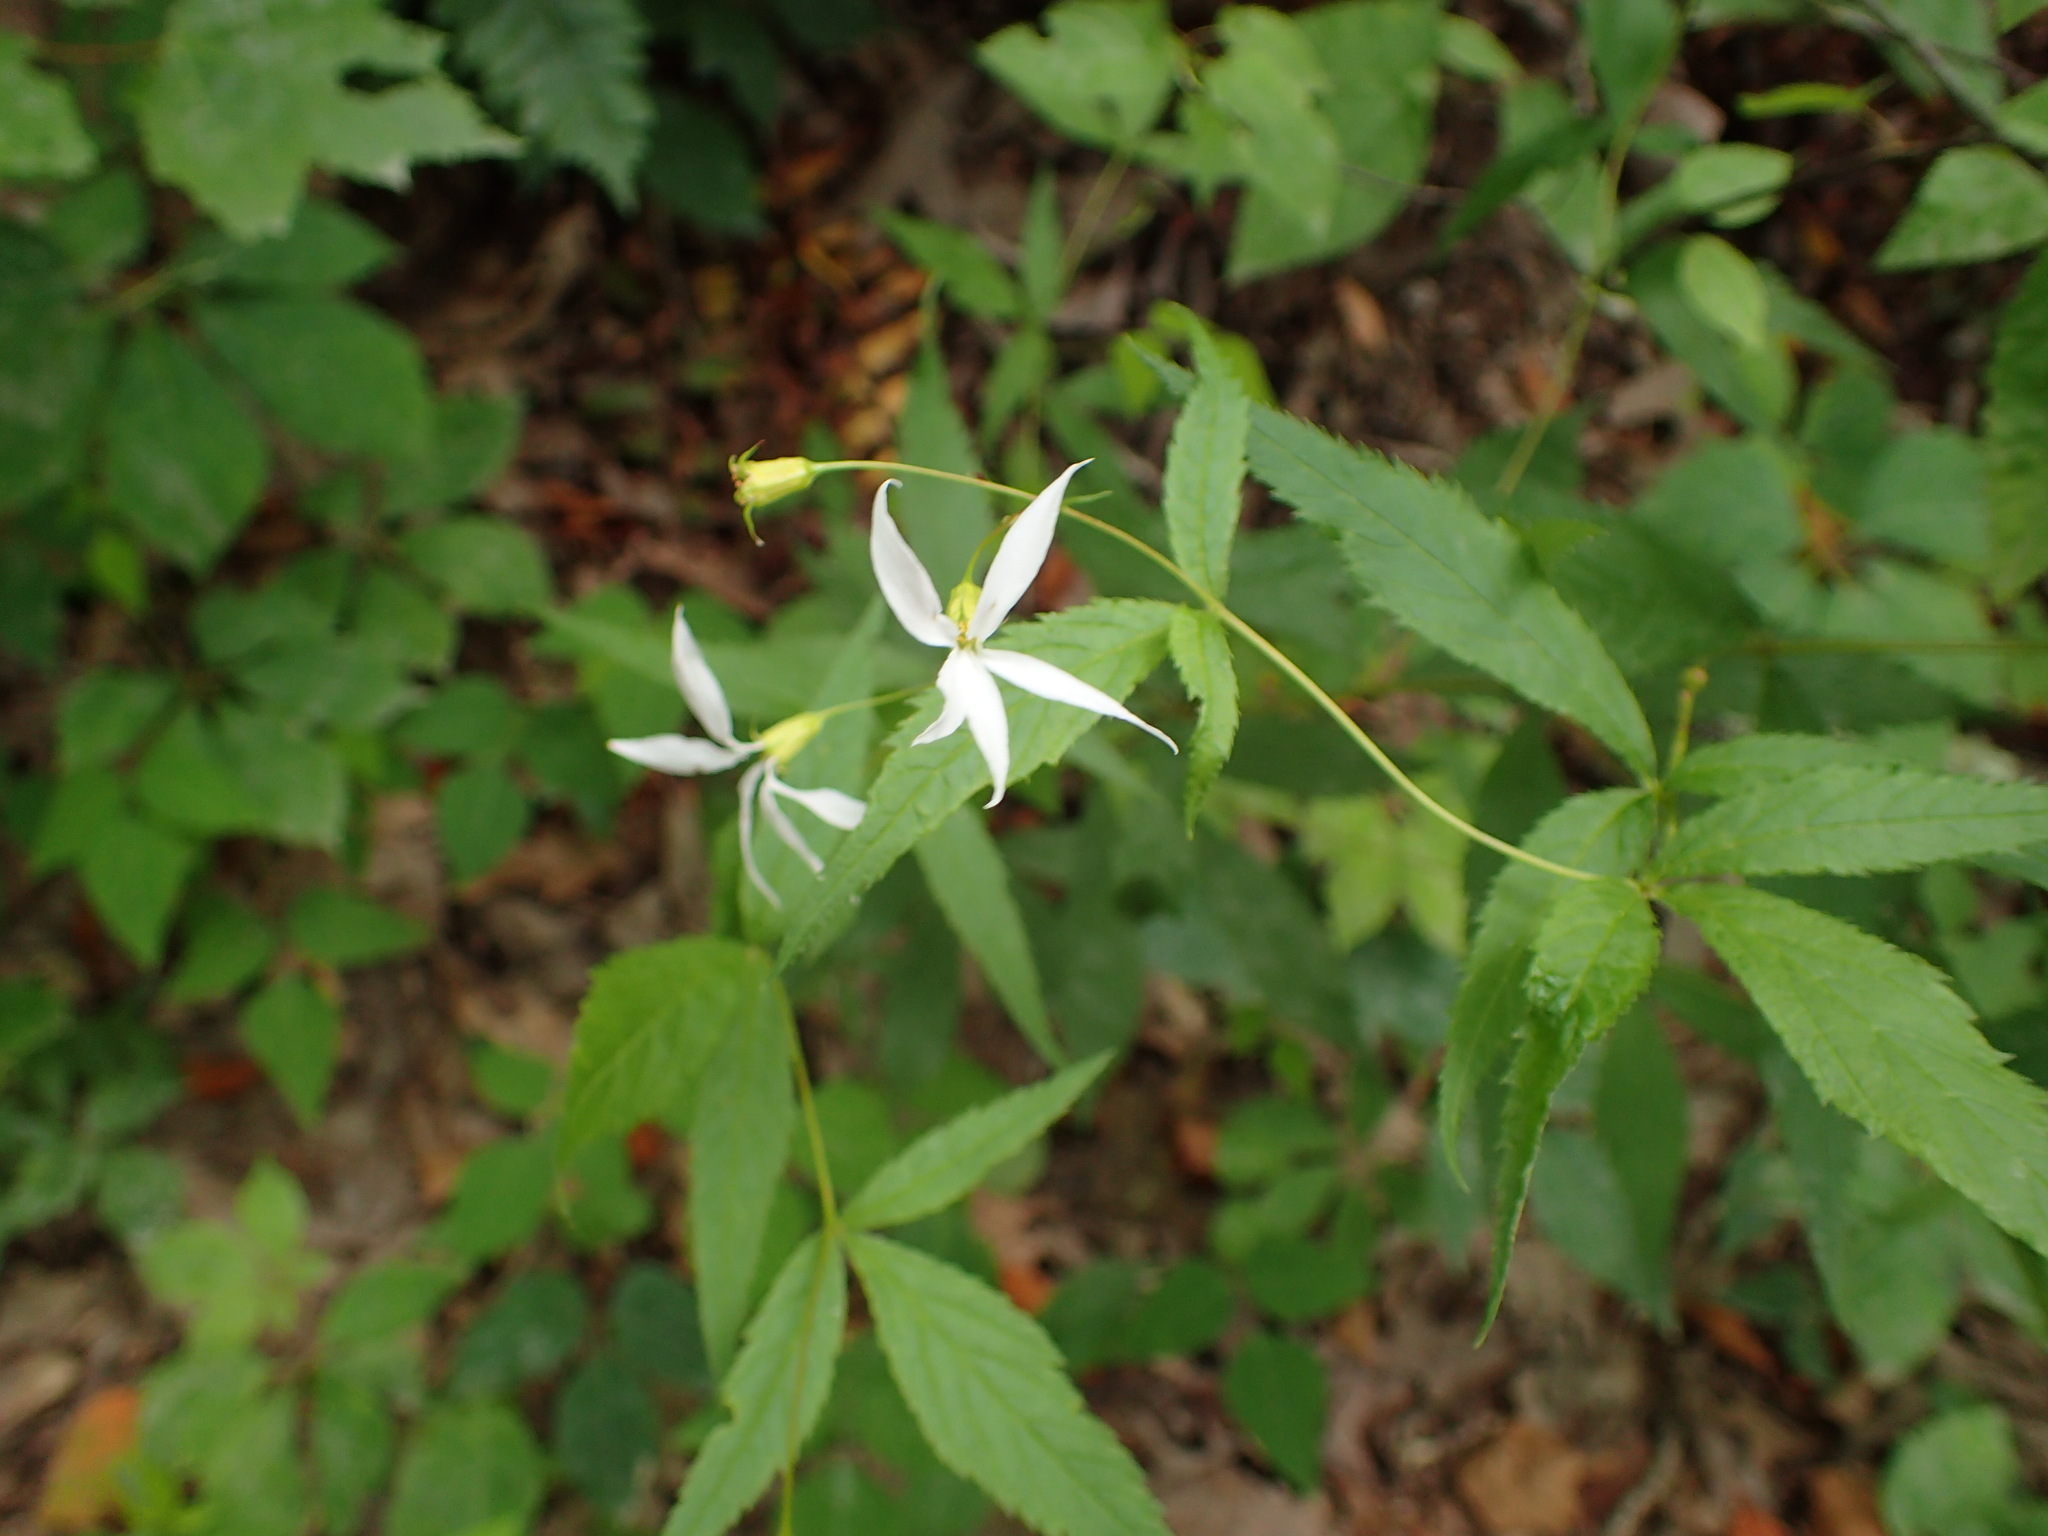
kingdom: Plantae
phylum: Tracheophyta
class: Magnoliopsida
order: Rosales
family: Rosaceae
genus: Gillenia
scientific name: Gillenia trifoliata
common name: Bowman's-root
